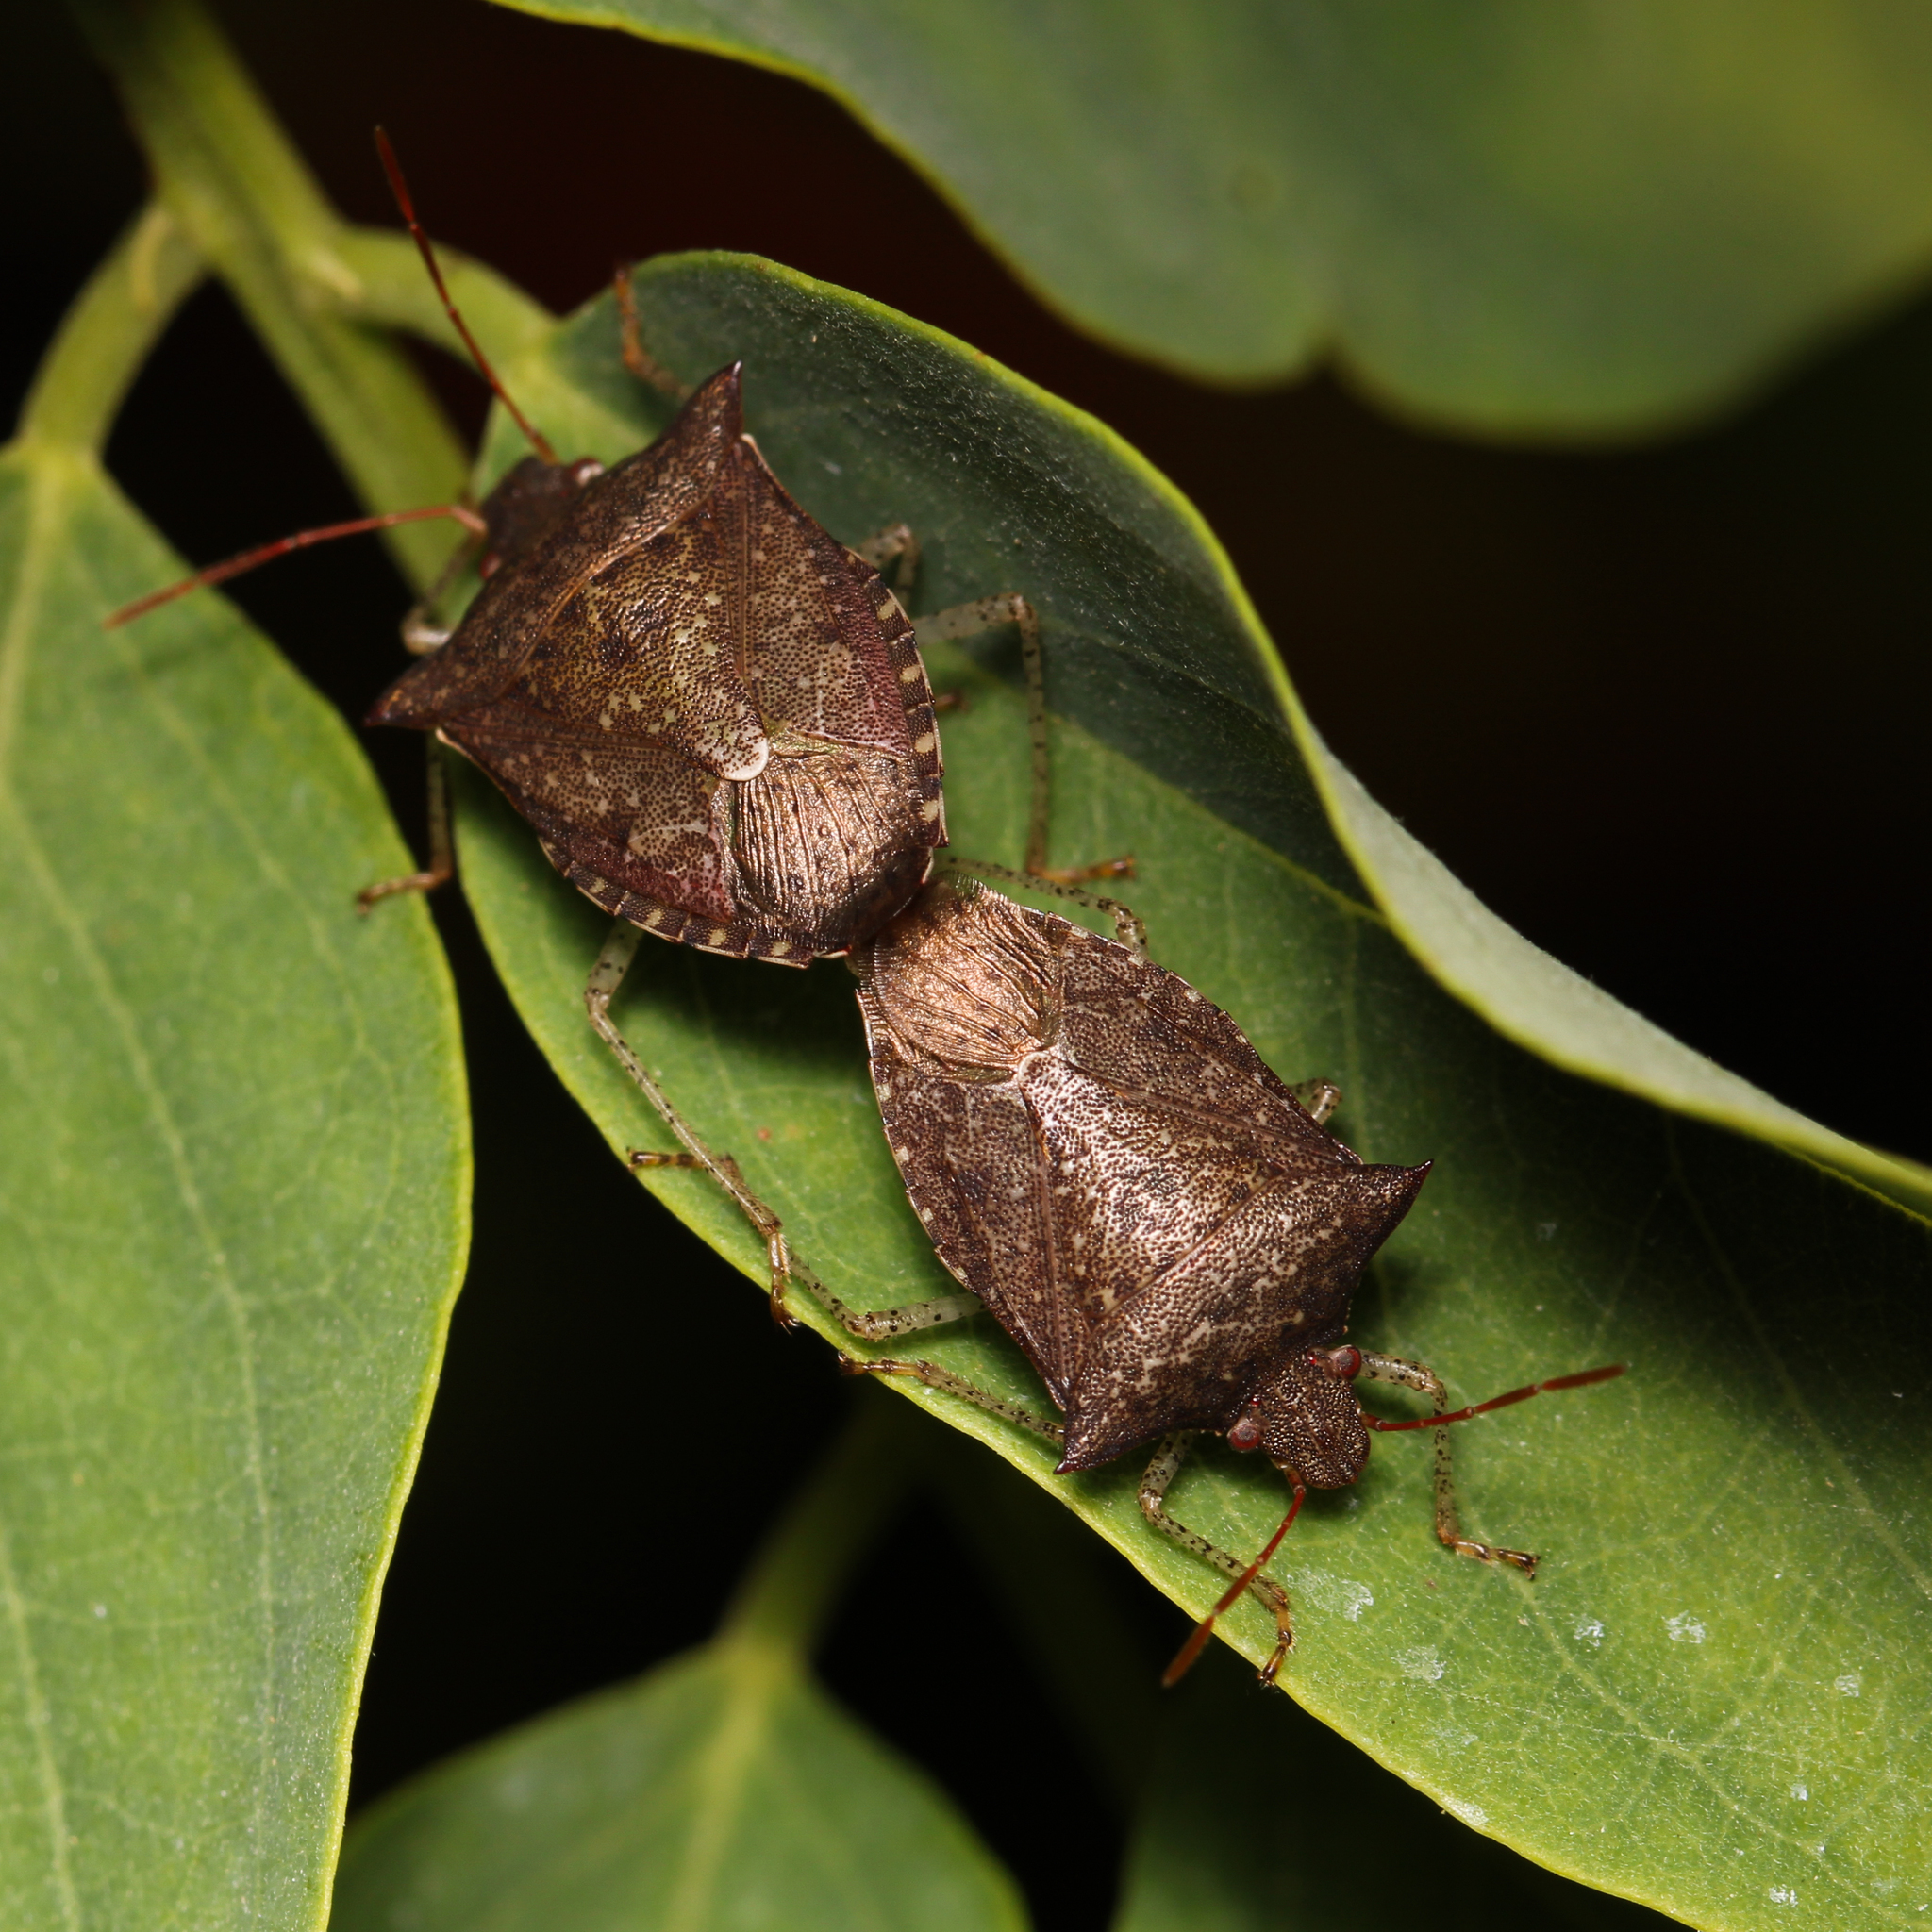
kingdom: Animalia
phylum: Arthropoda
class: Insecta
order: Hemiptera
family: Pentatomidae
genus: Euschistus
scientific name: Euschistus tristigmus
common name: Dusky stink bug
